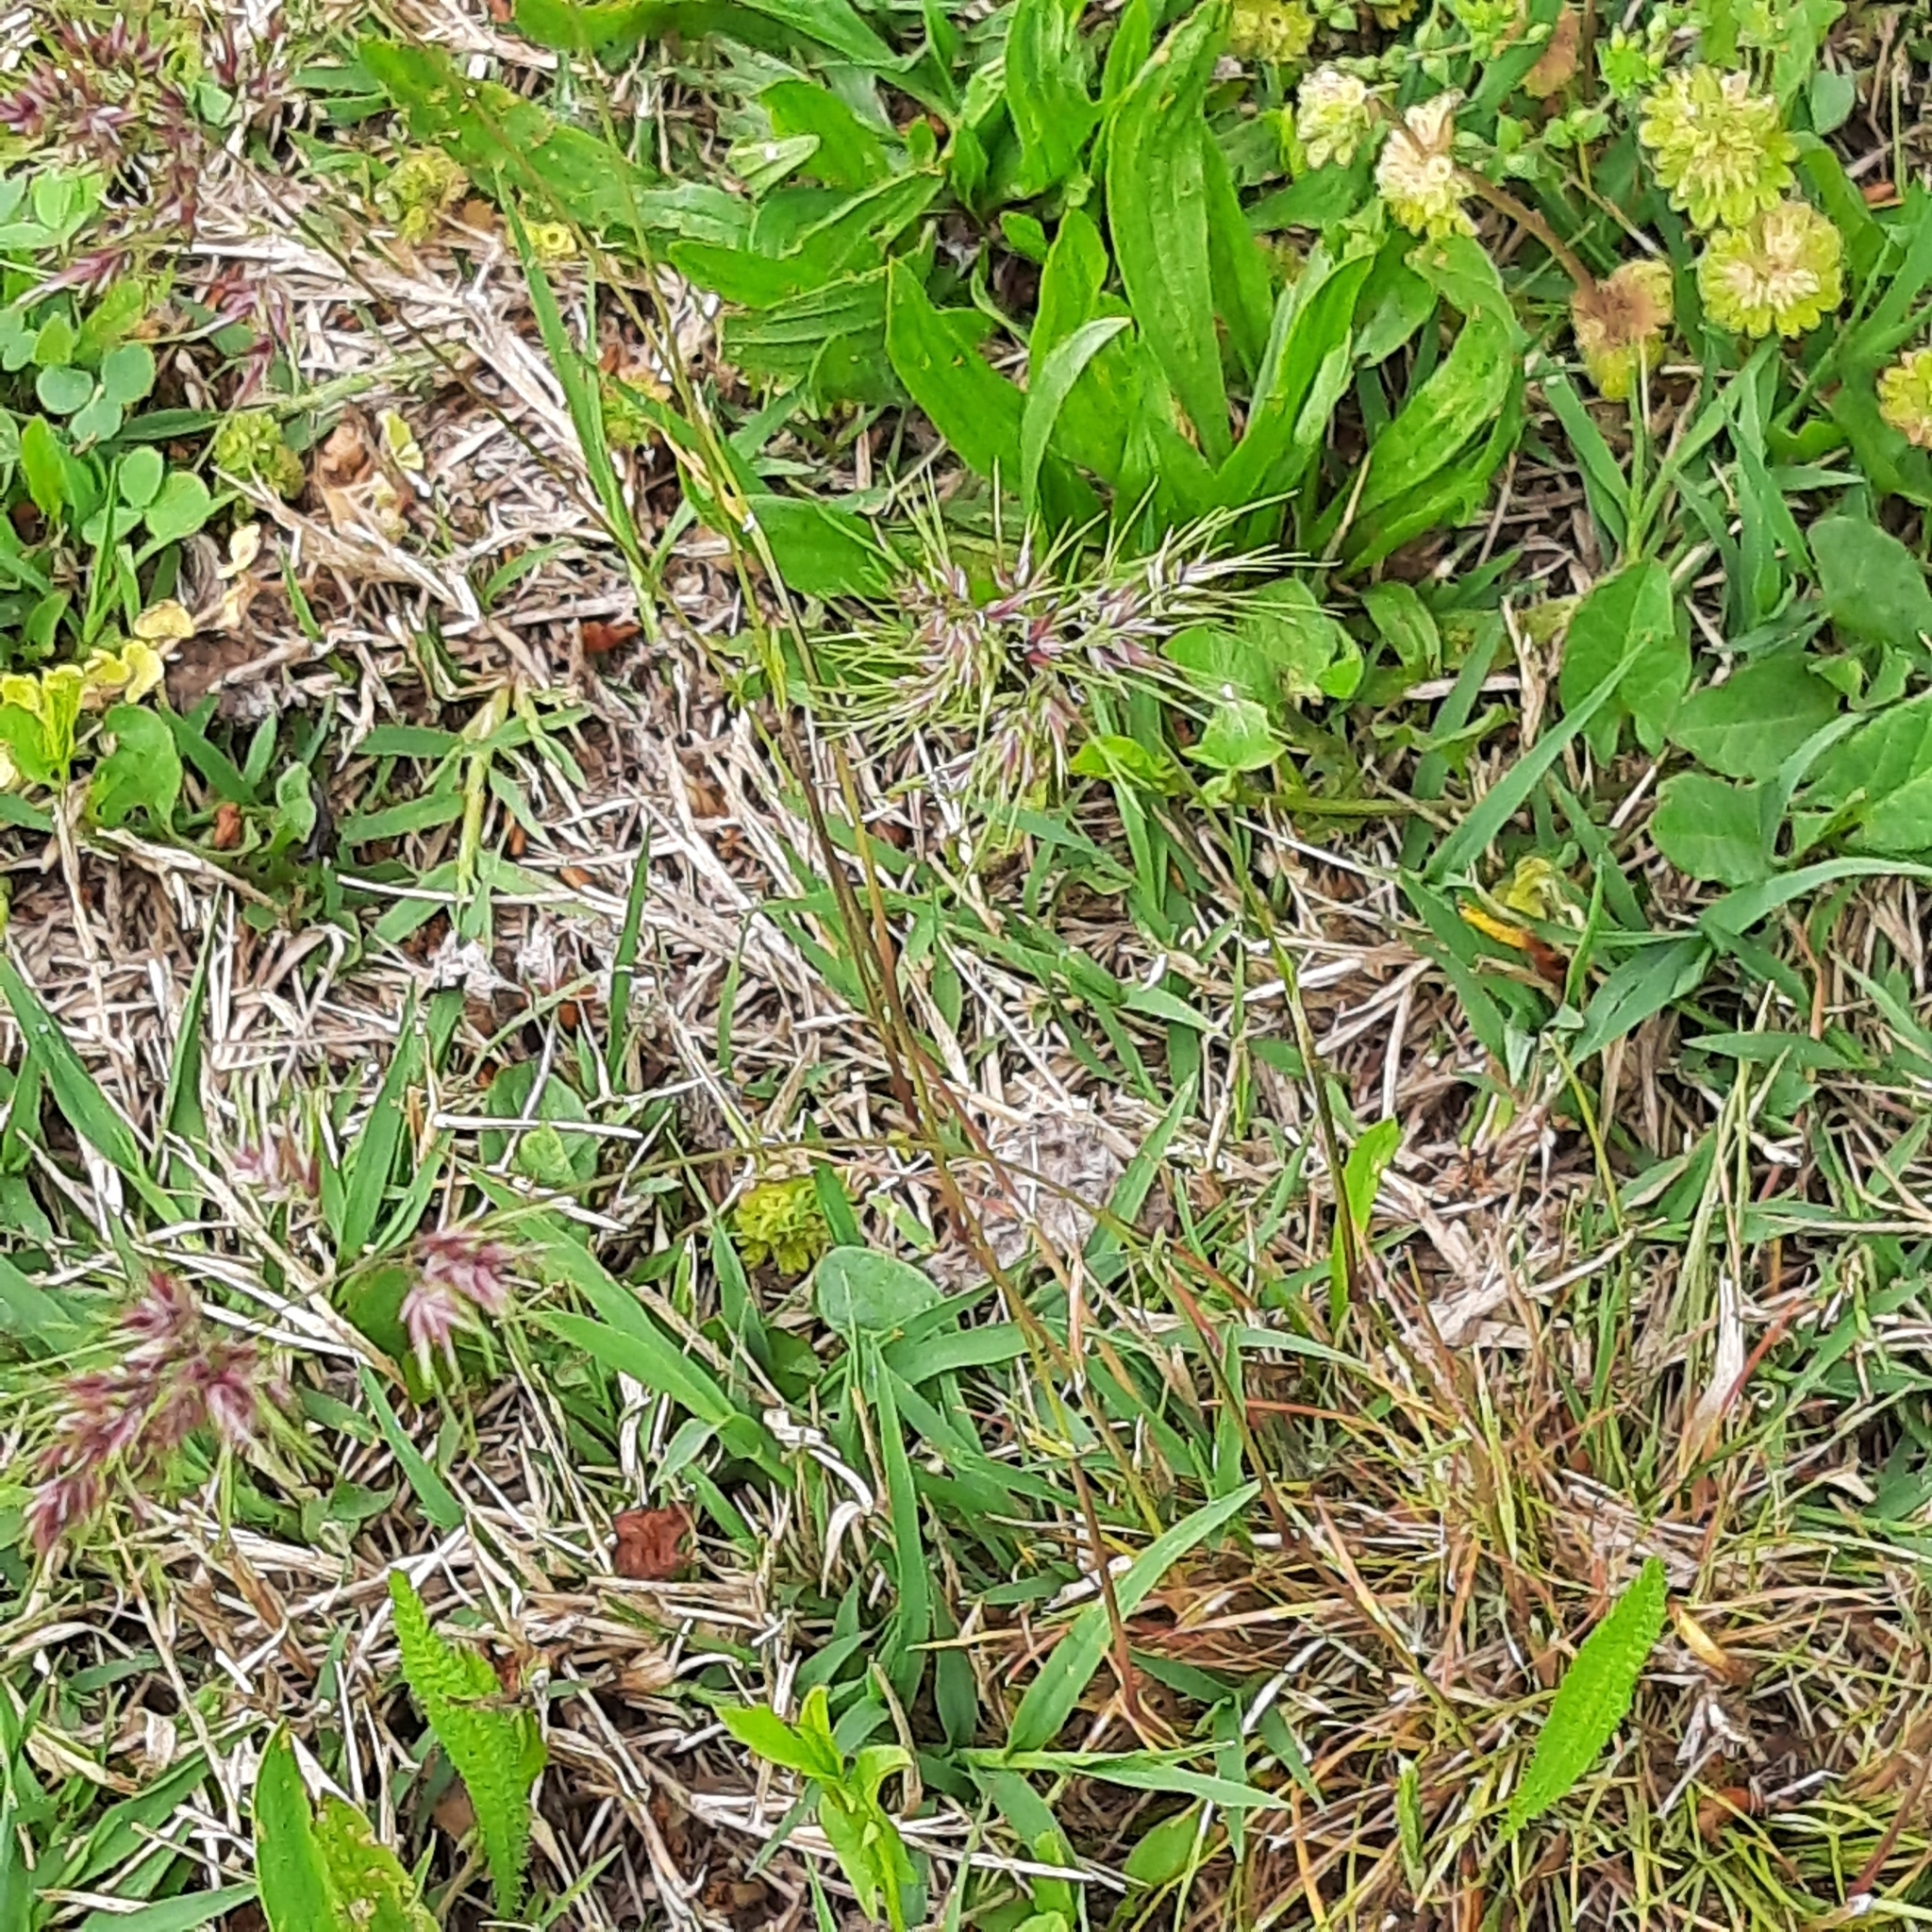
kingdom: Plantae
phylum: Tracheophyta
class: Liliopsida
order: Poales
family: Poaceae
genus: Poa
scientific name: Poa bulbosa
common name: Bulbous bluegrass
